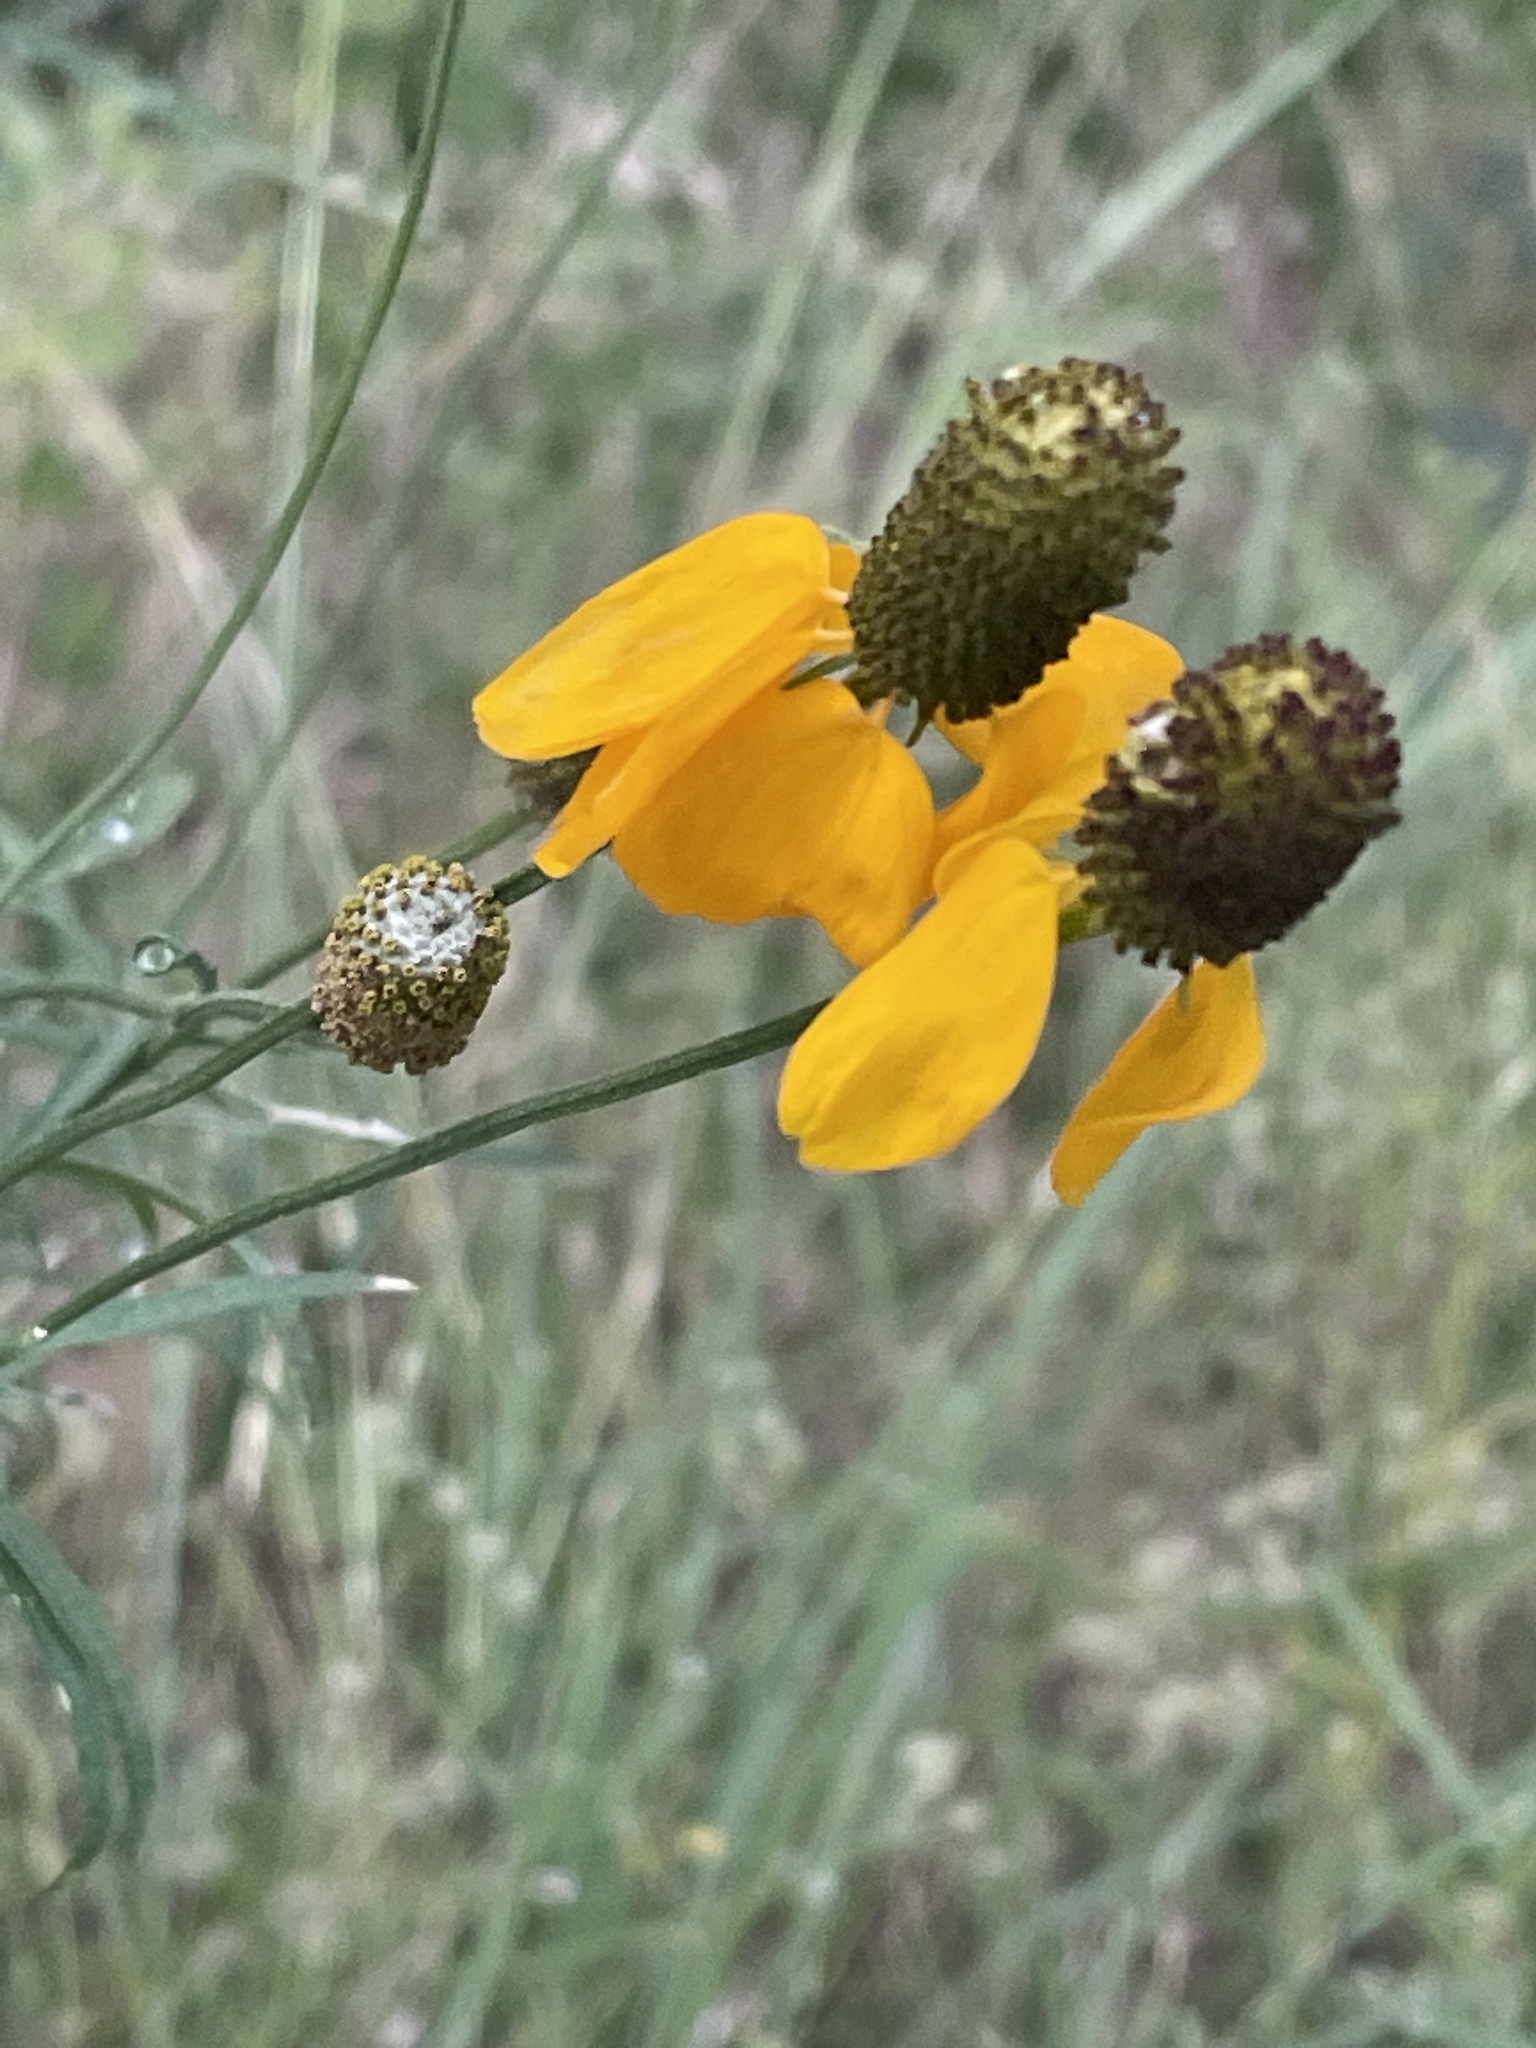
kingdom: Plantae
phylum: Tracheophyta
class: Magnoliopsida
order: Asterales
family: Asteraceae
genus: Ratibida
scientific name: Ratibida columnifera
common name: Prairie coneflower
